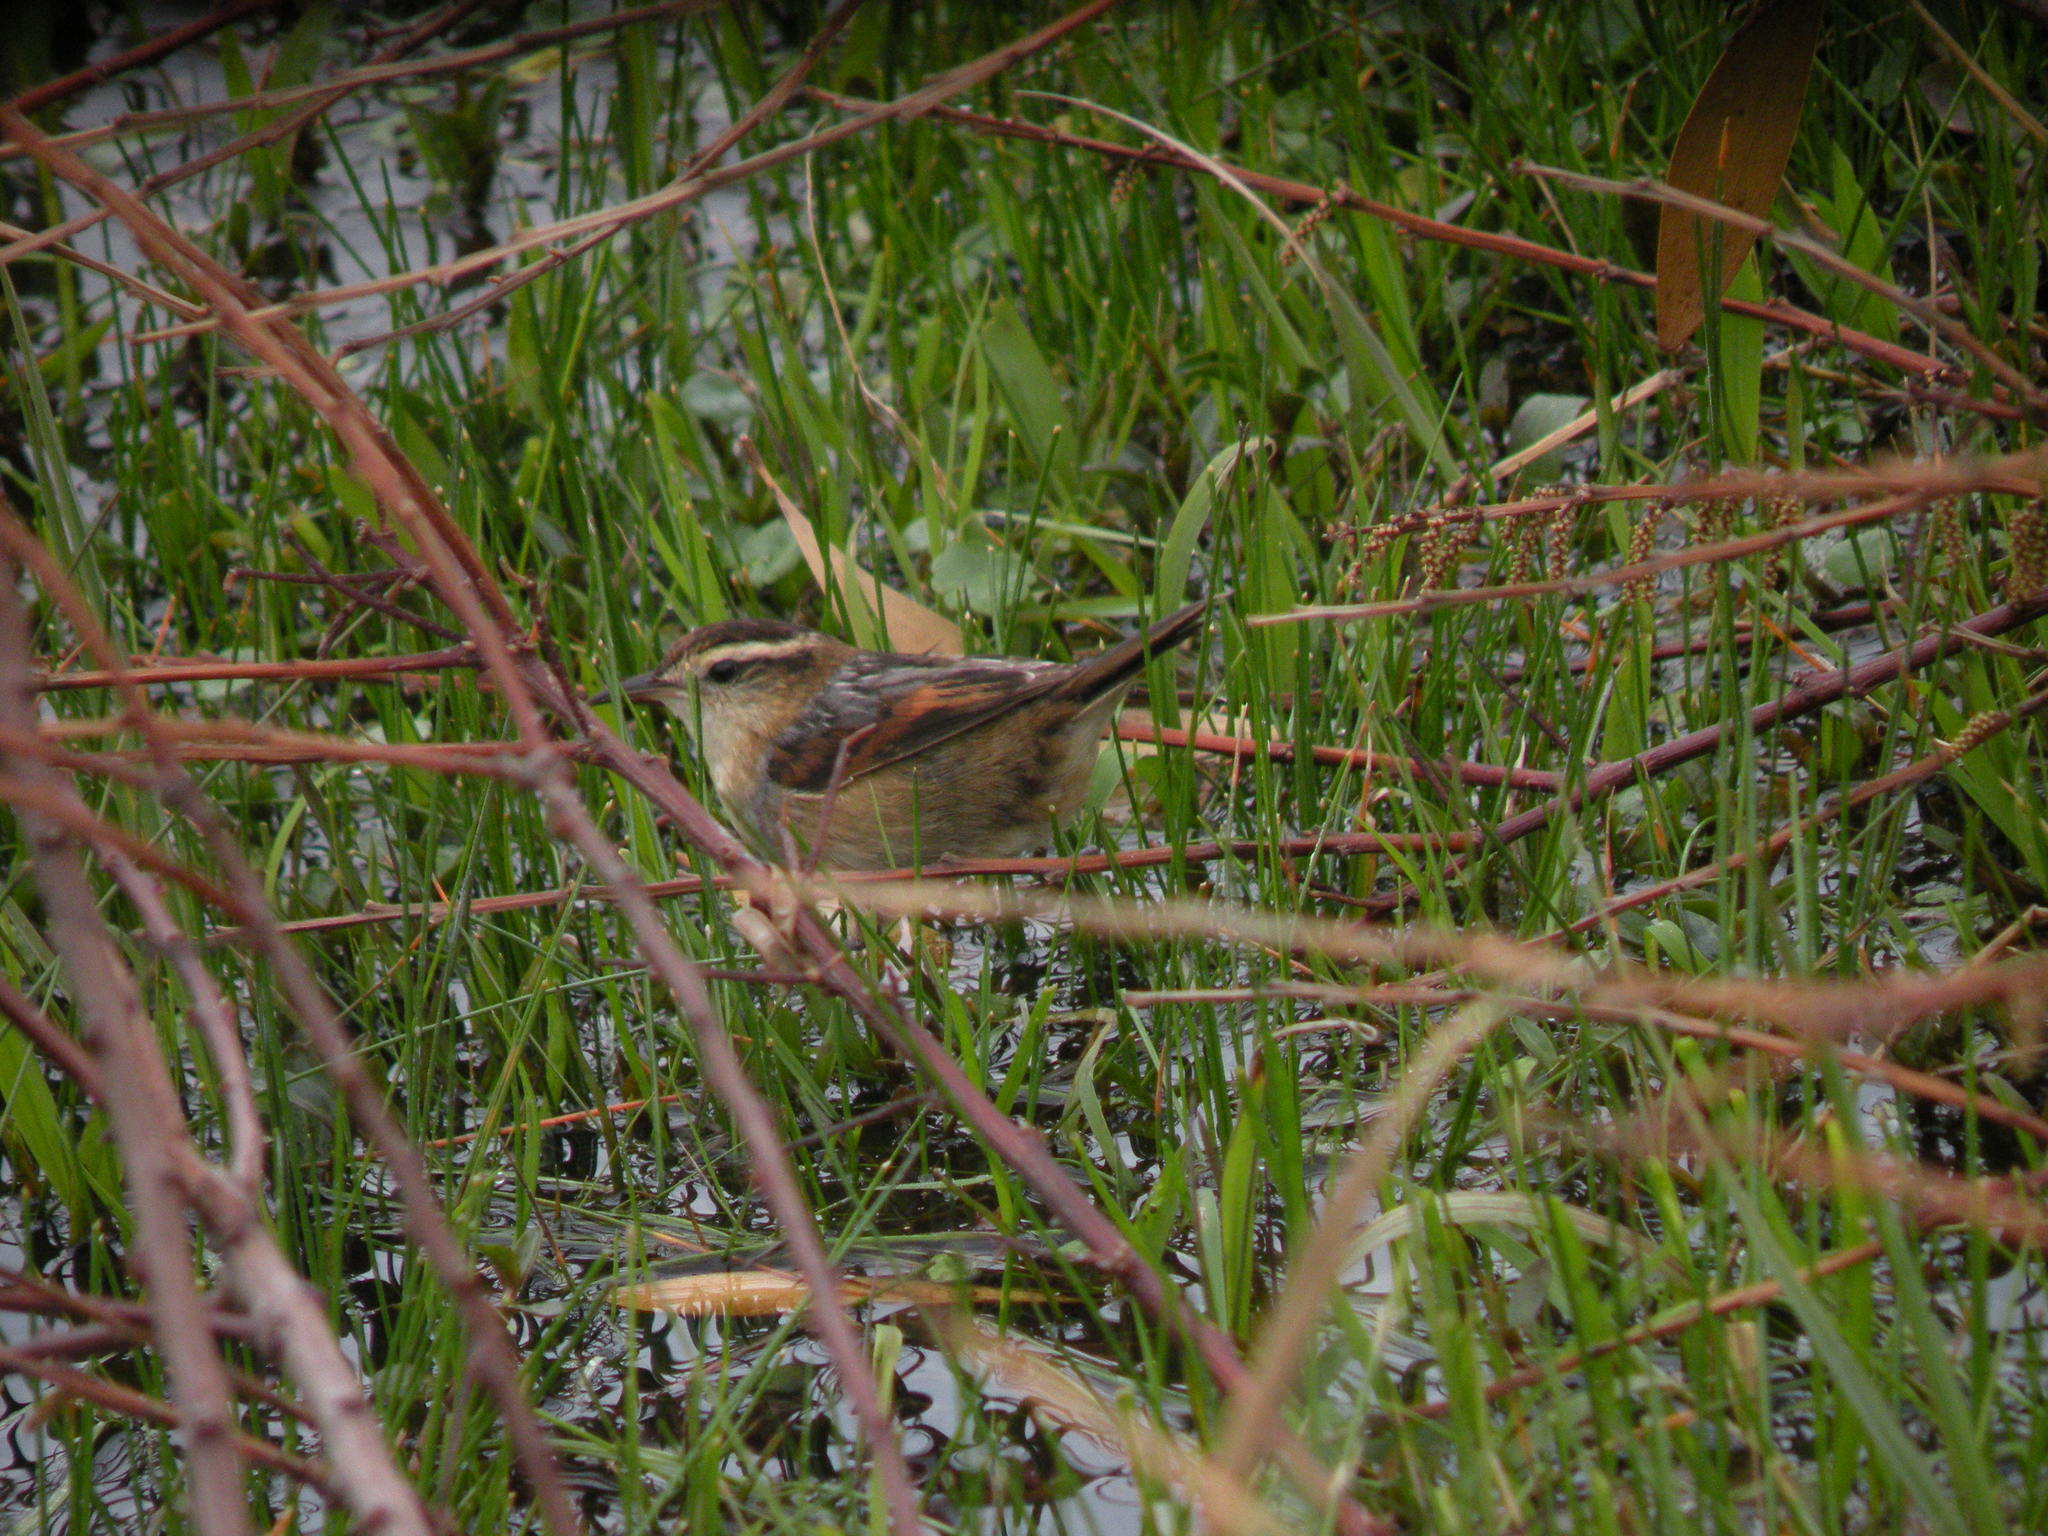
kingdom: Animalia
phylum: Chordata
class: Aves
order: Passeriformes
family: Furnariidae
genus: Phleocryptes
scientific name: Phleocryptes melanops
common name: Wren-like rushbird
